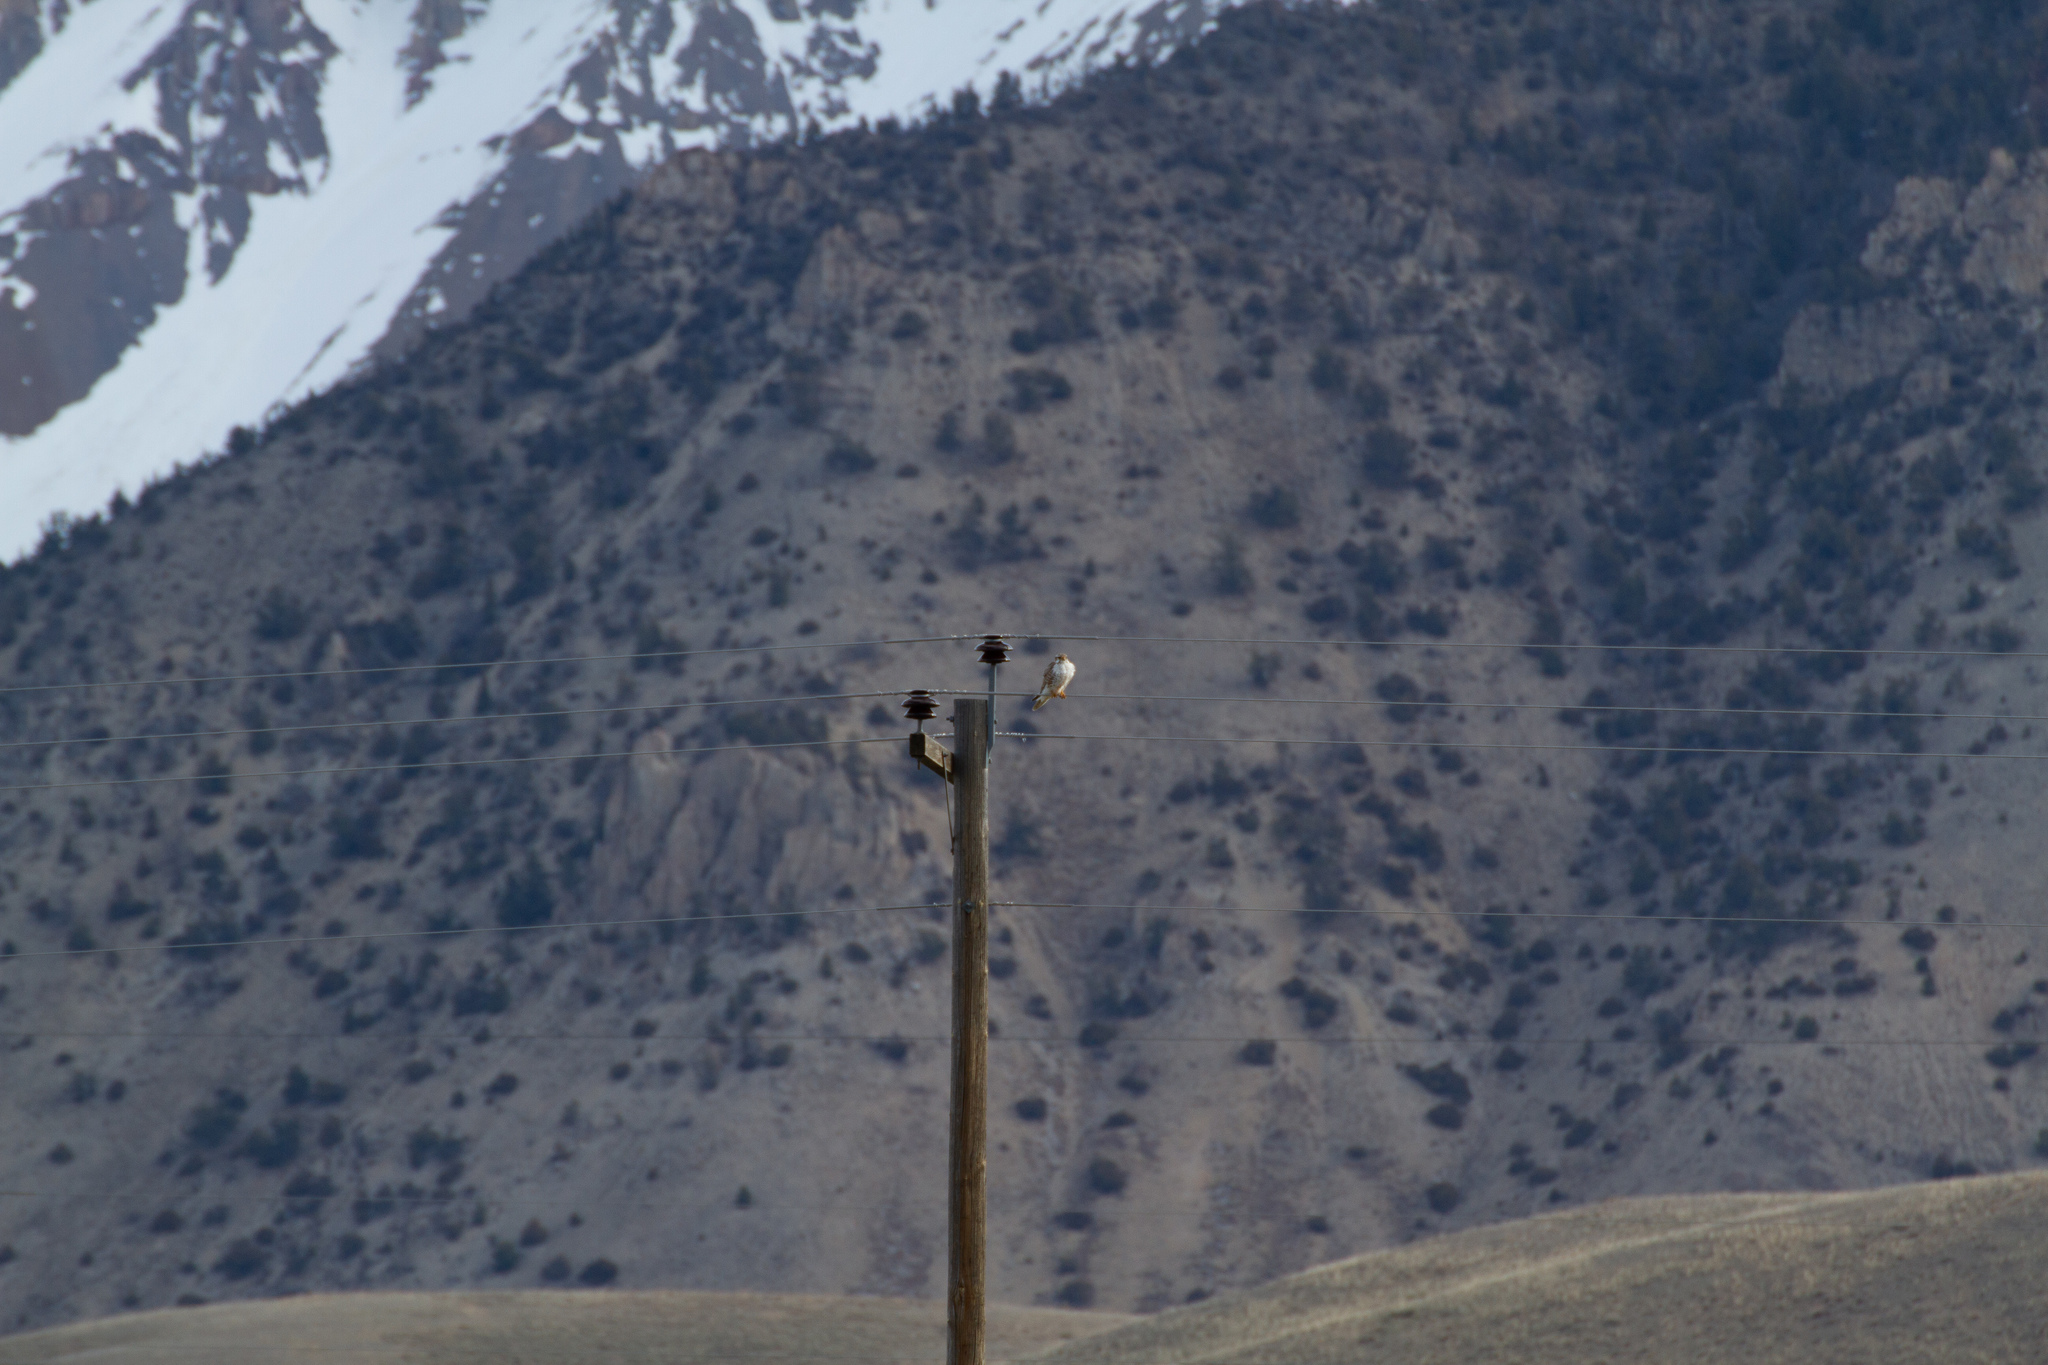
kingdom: Animalia
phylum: Chordata
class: Aves
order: Falconiformes
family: Falconidae
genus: Falco
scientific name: Falco mexicanus
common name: Prairie falcon
